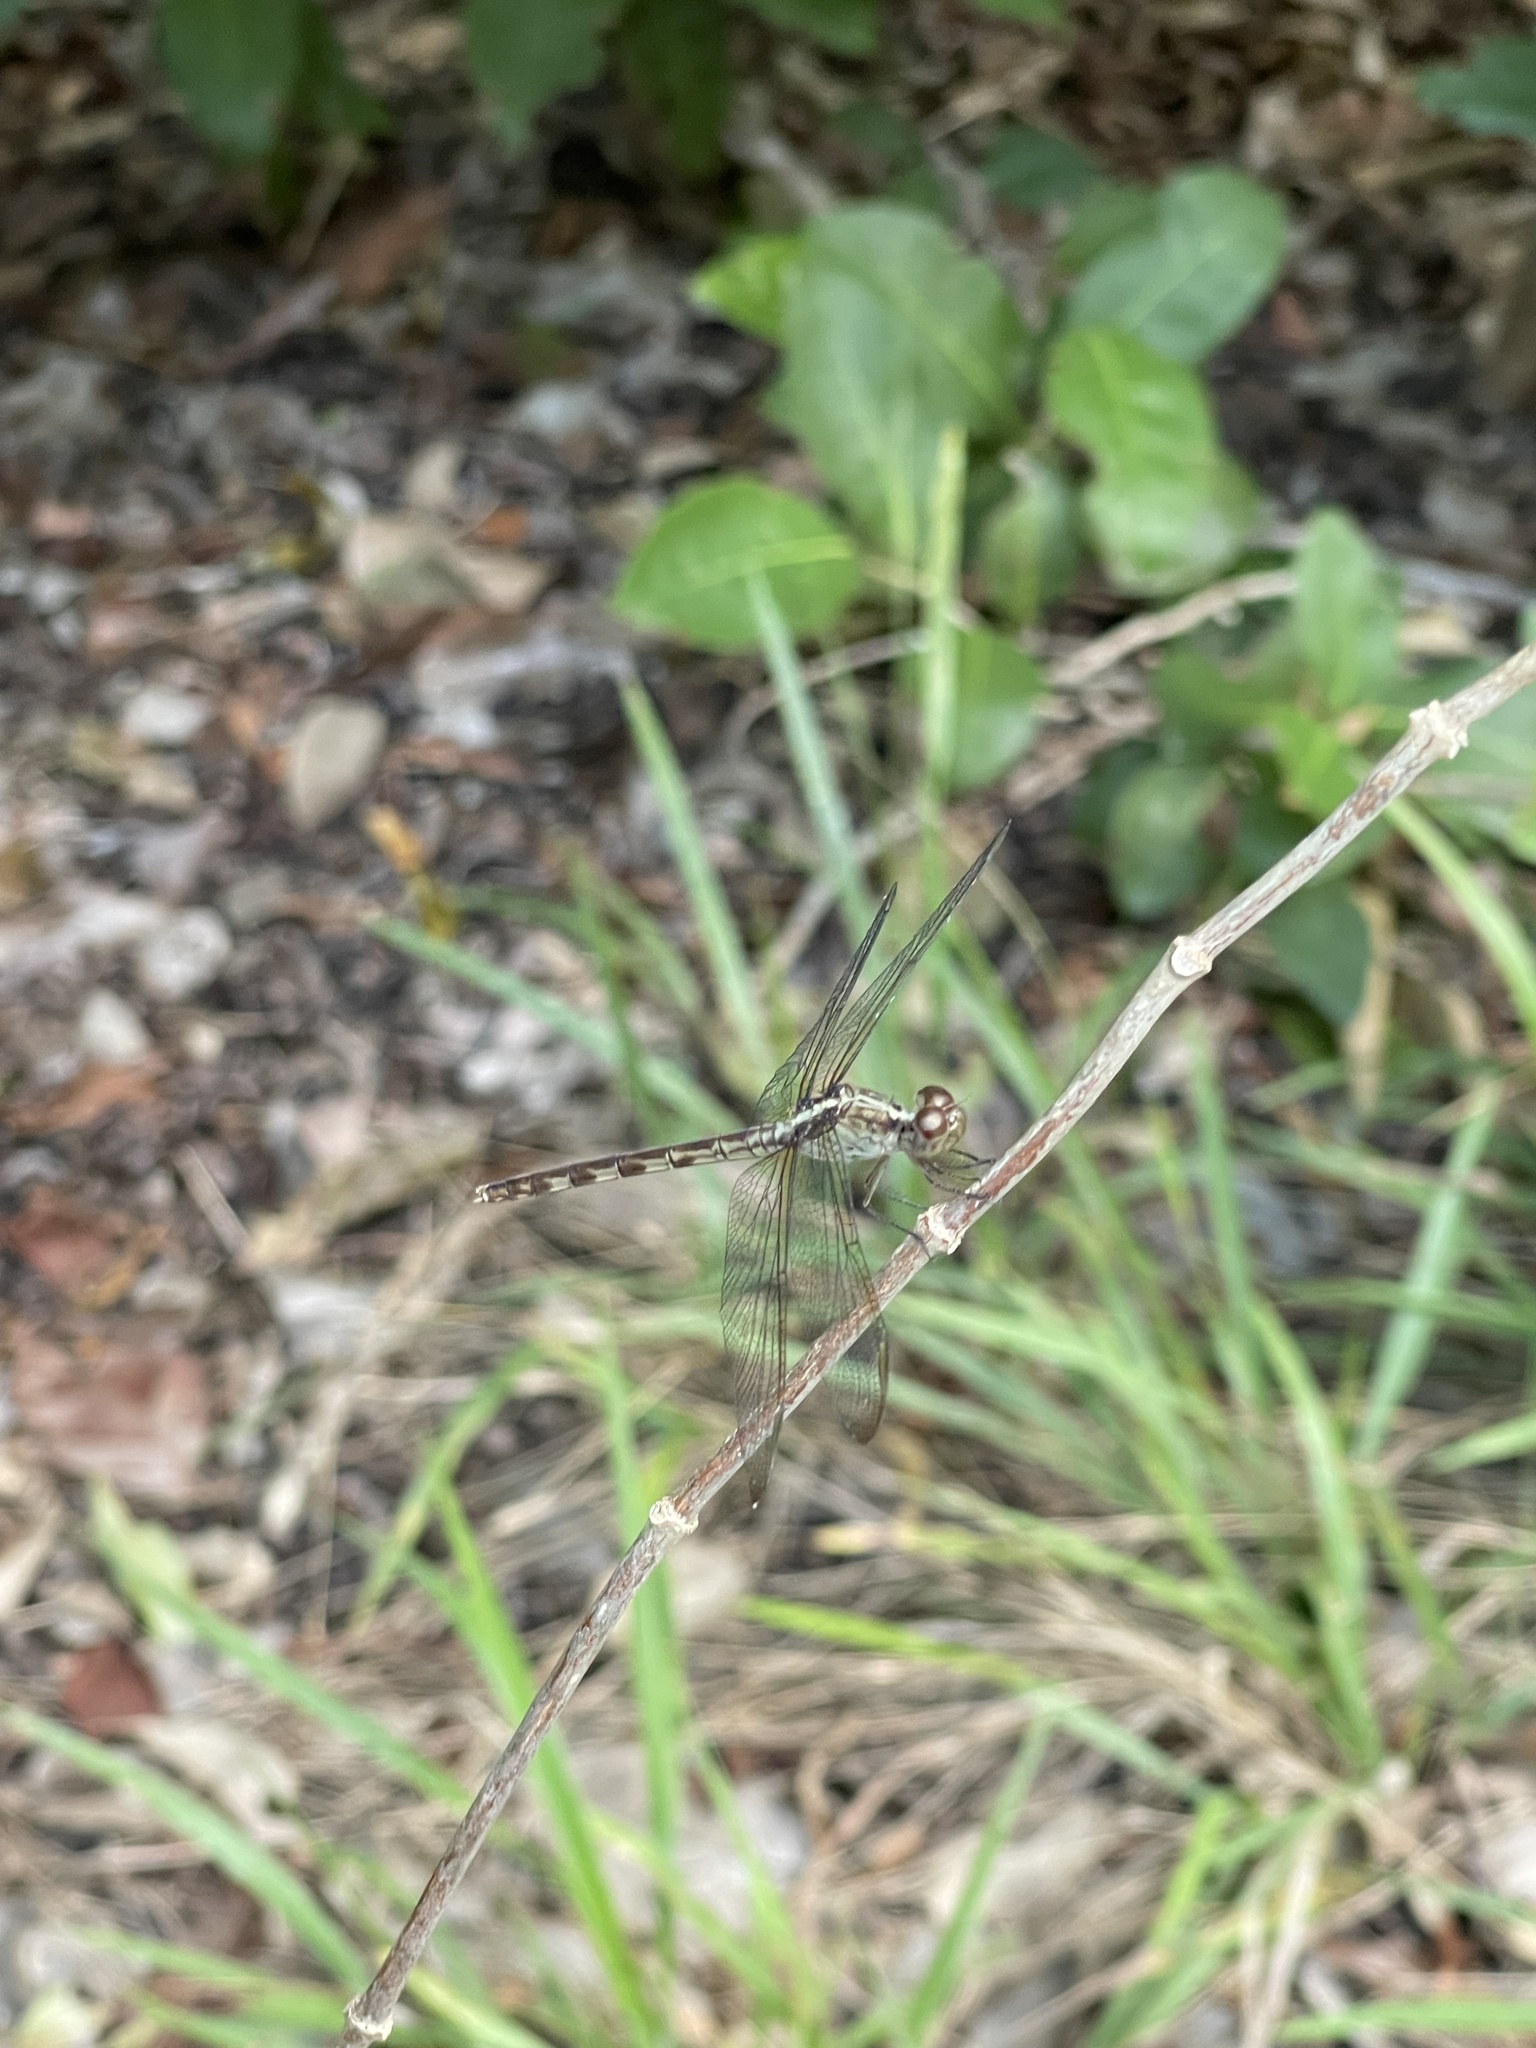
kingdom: Animalia
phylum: Arthropoda
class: Insecta
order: Odonata
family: Libellulidae
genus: Erythrodiplax
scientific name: Erythrodiplax umbrata
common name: Band-winged dragonlet
